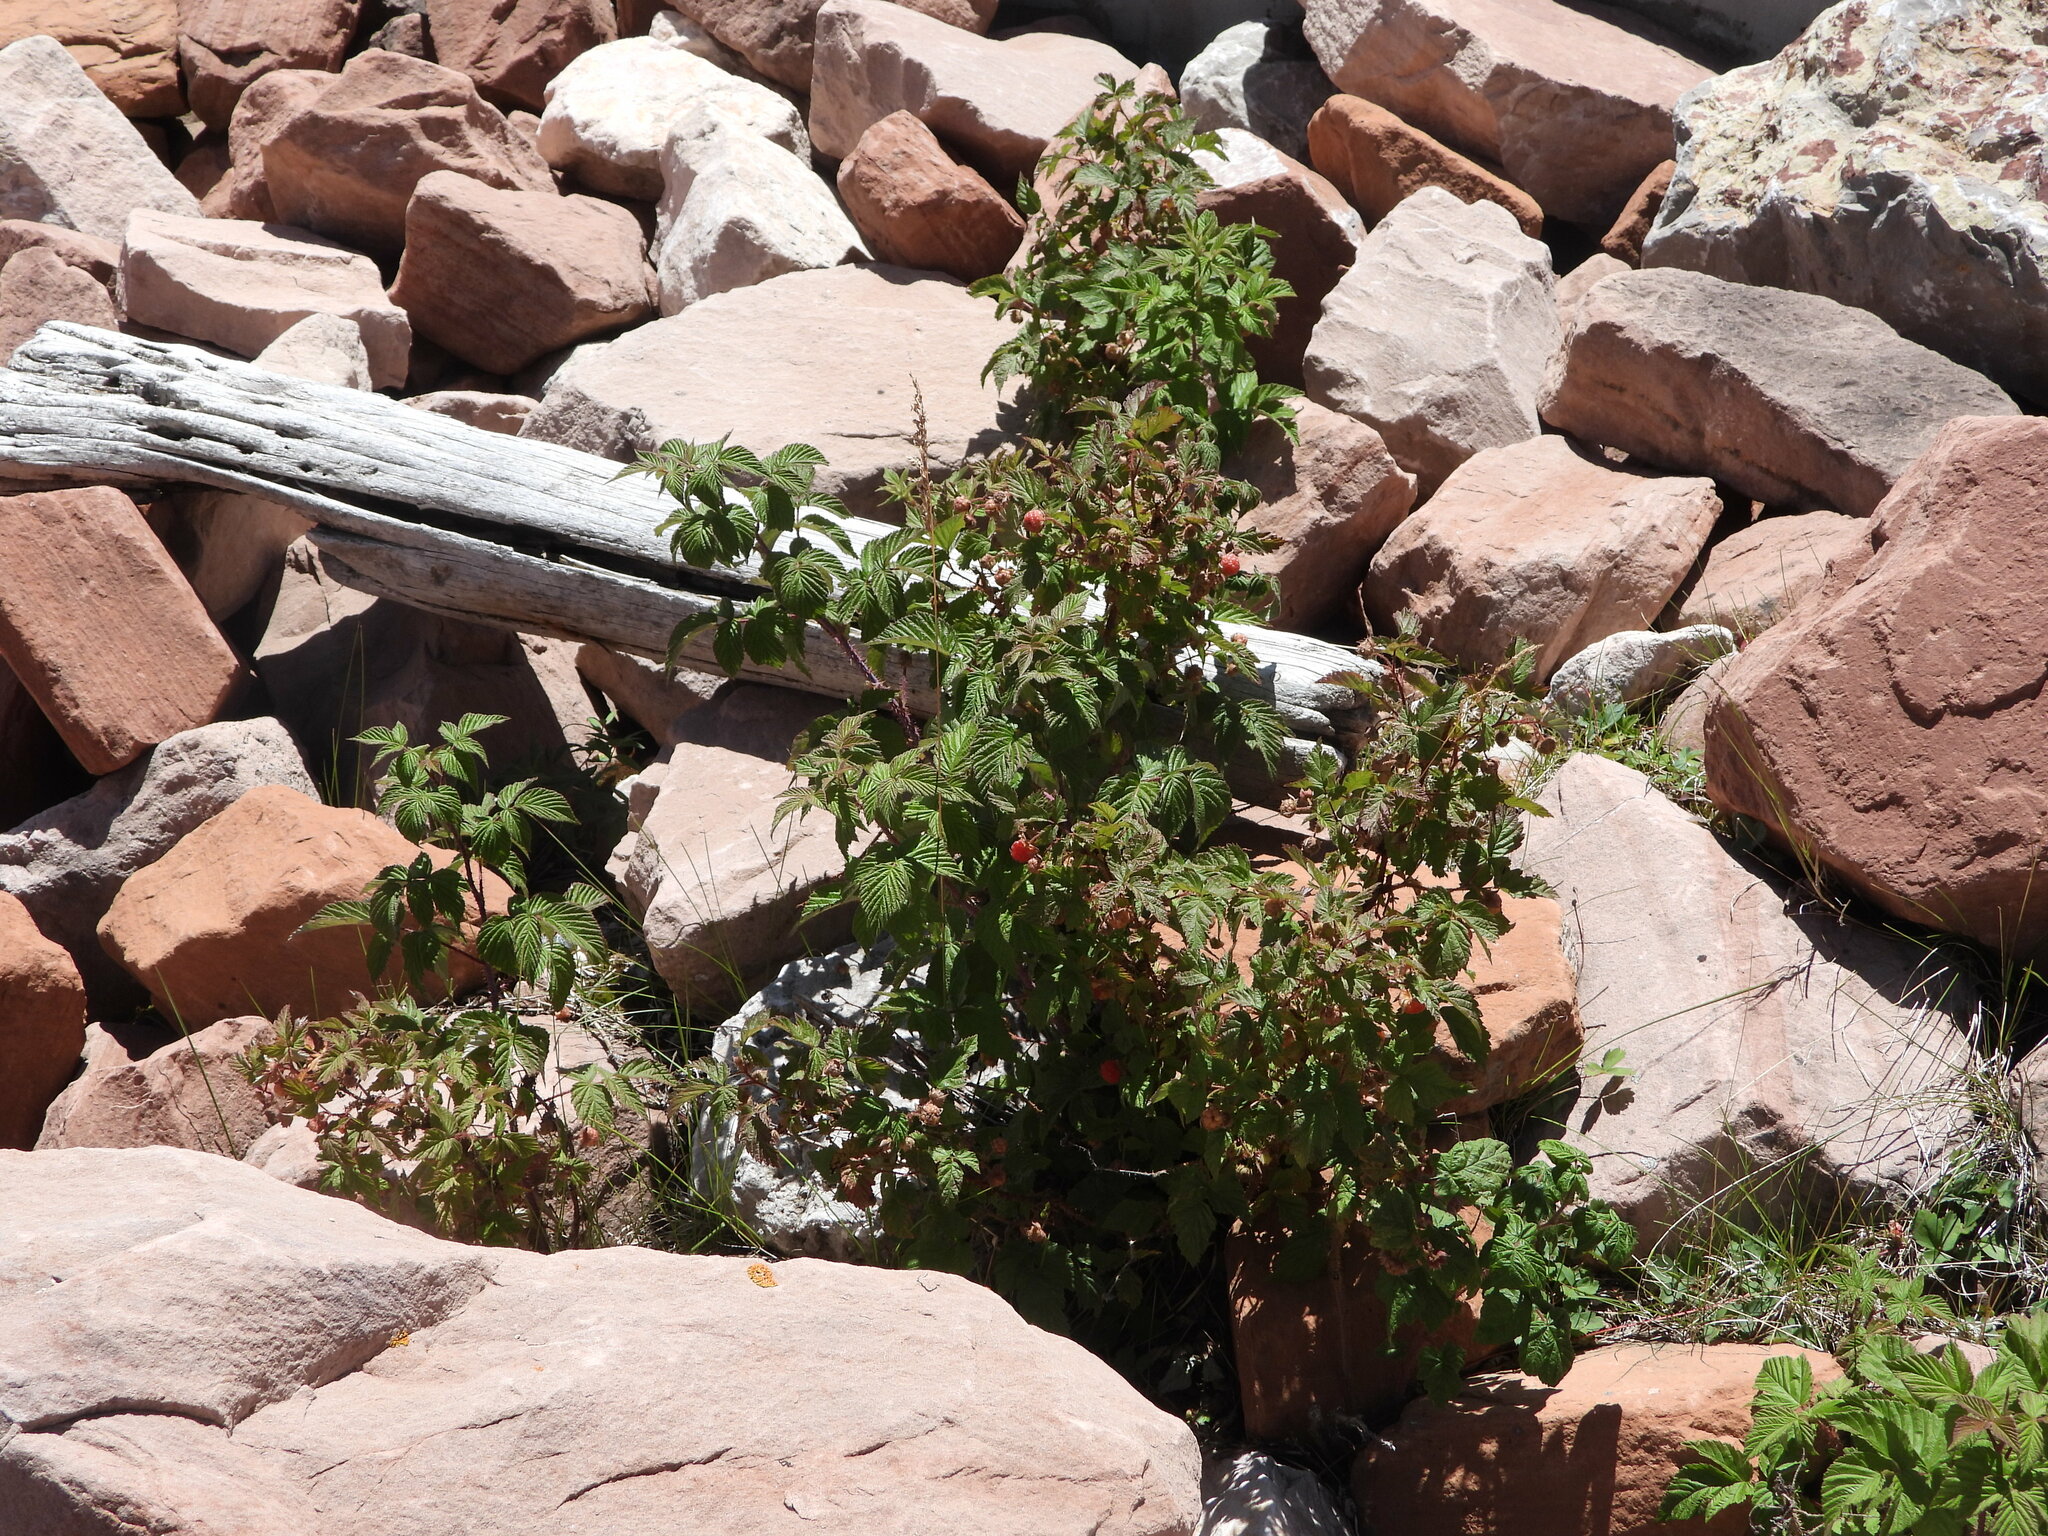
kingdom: Plantae
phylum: Tracheophyta
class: Magnoliopsida
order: Rosales
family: Rosaceae
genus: Rubus
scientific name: Rubus idaeus
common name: Raspberry
